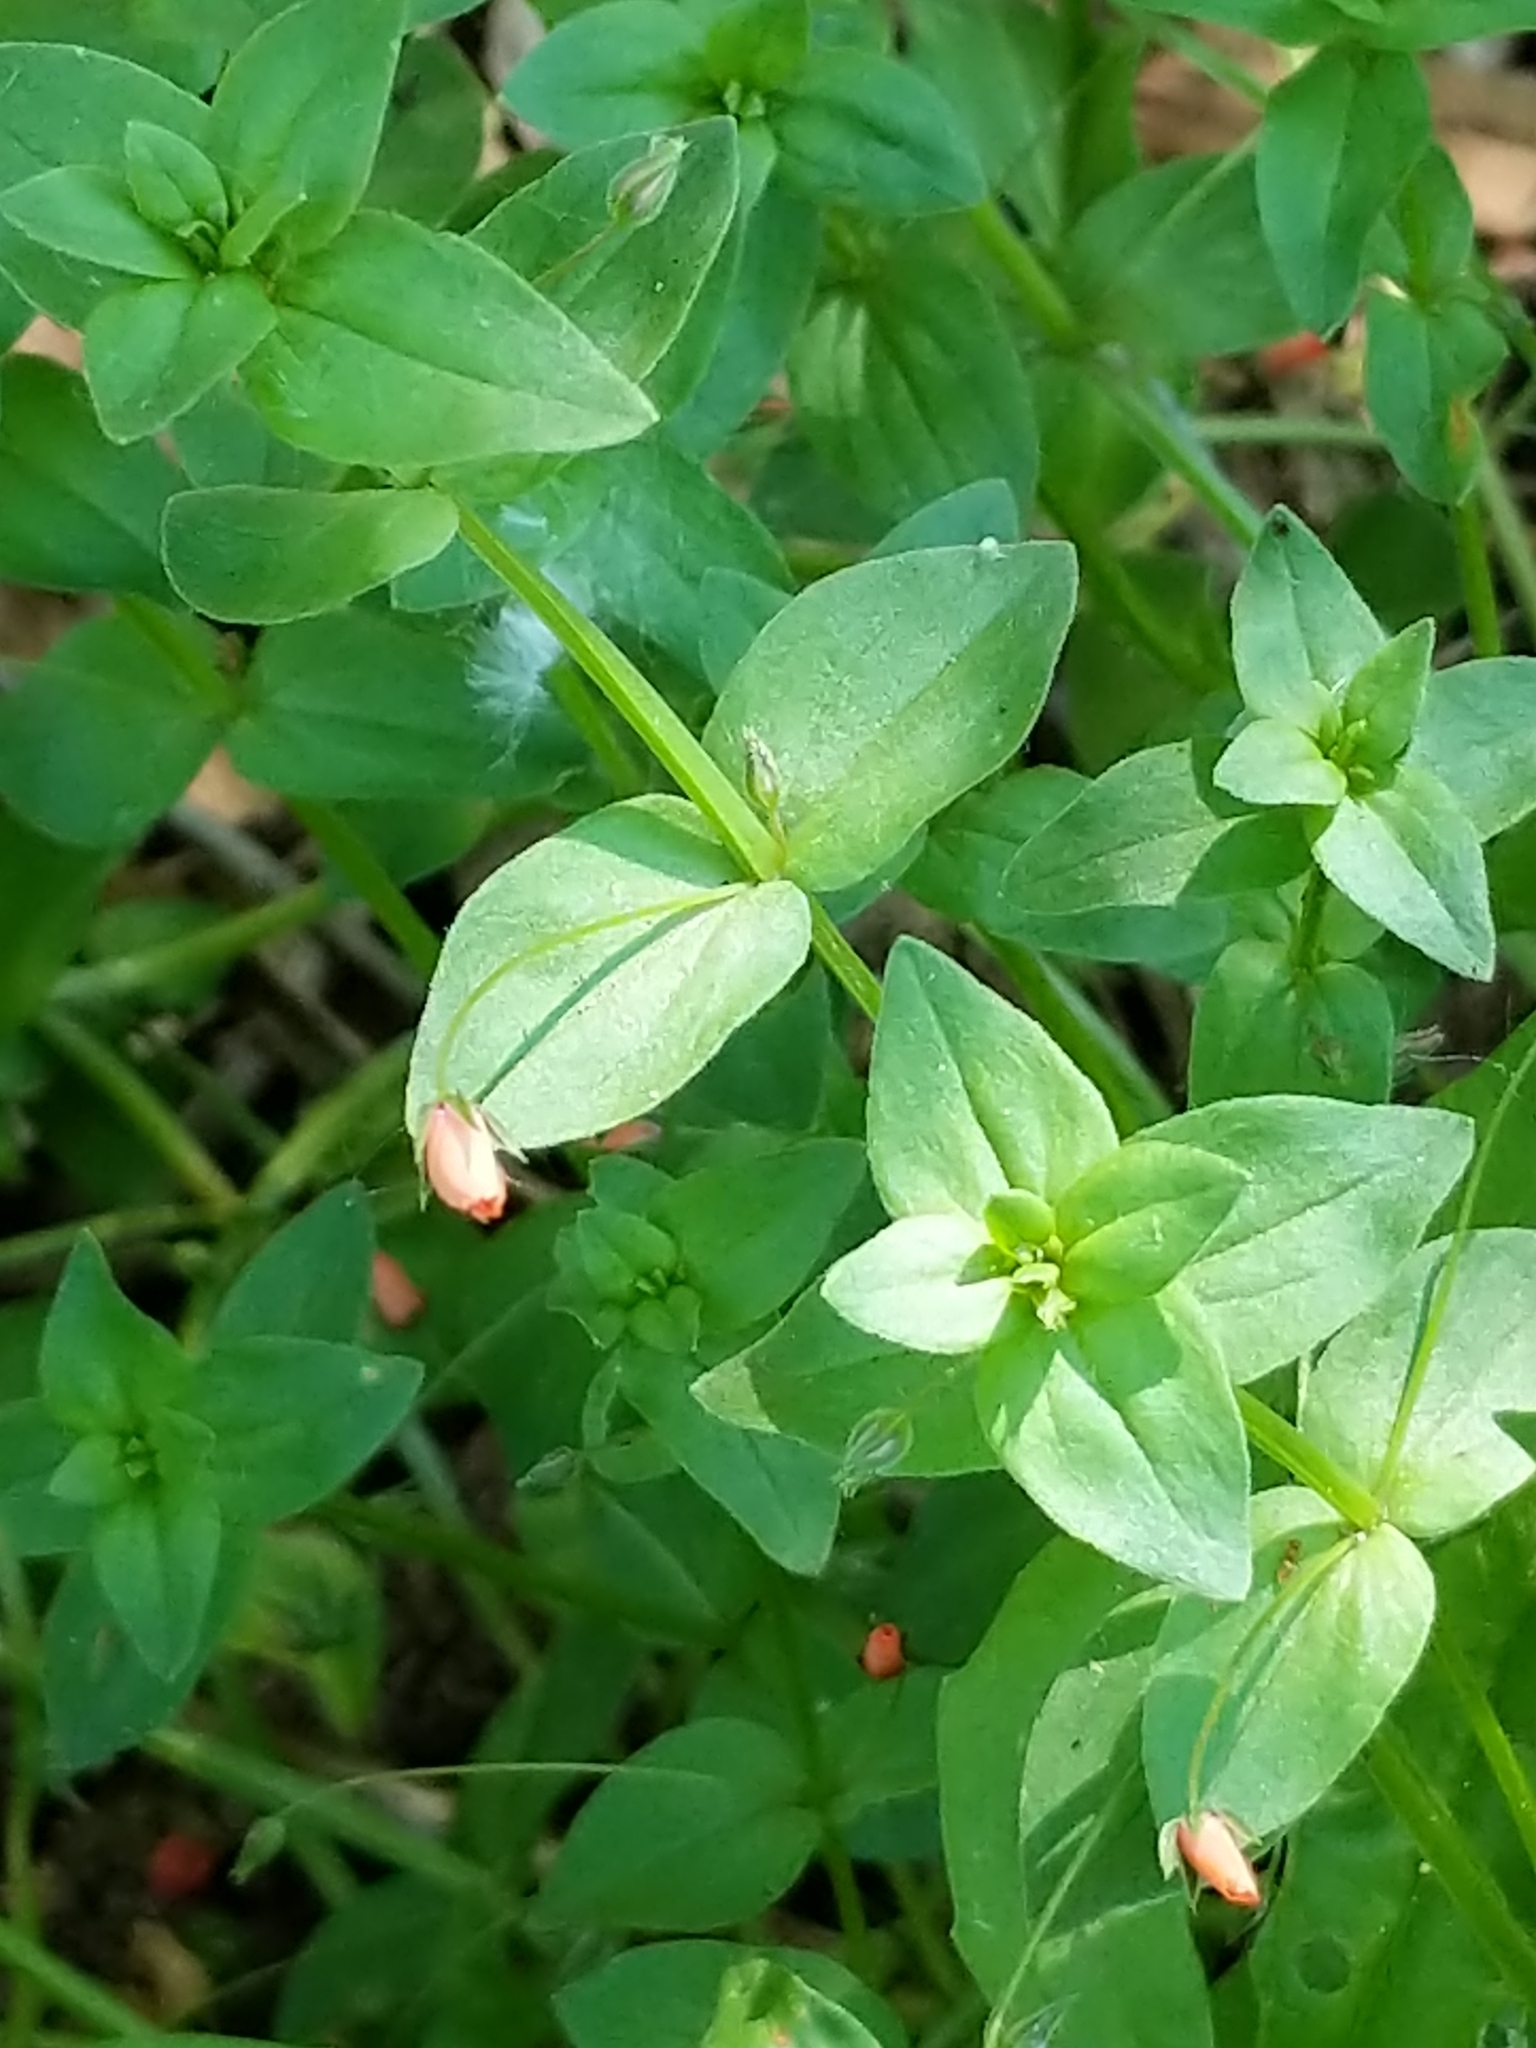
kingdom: Plantae
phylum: Tracheophyta
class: Magnoliopsida
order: Ericales
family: Primulaceae
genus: Lysimachia
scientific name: Lysimachia arvensis
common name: Scarlet pimpernel
